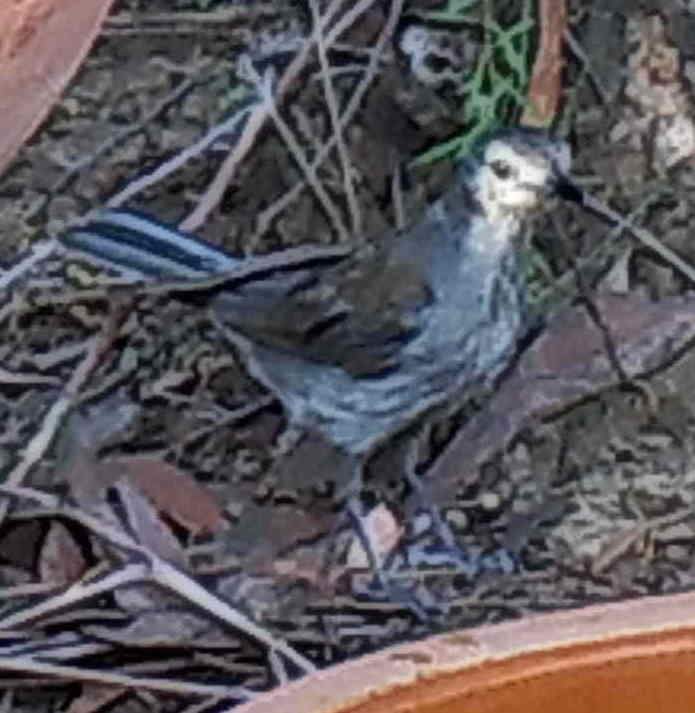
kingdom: Animalia
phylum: Chordata
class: Aves
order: Passeriformes
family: Pachycephalidae
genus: Colluricincla
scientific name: Colluricincla harmonica
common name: Grey shrikethrush
